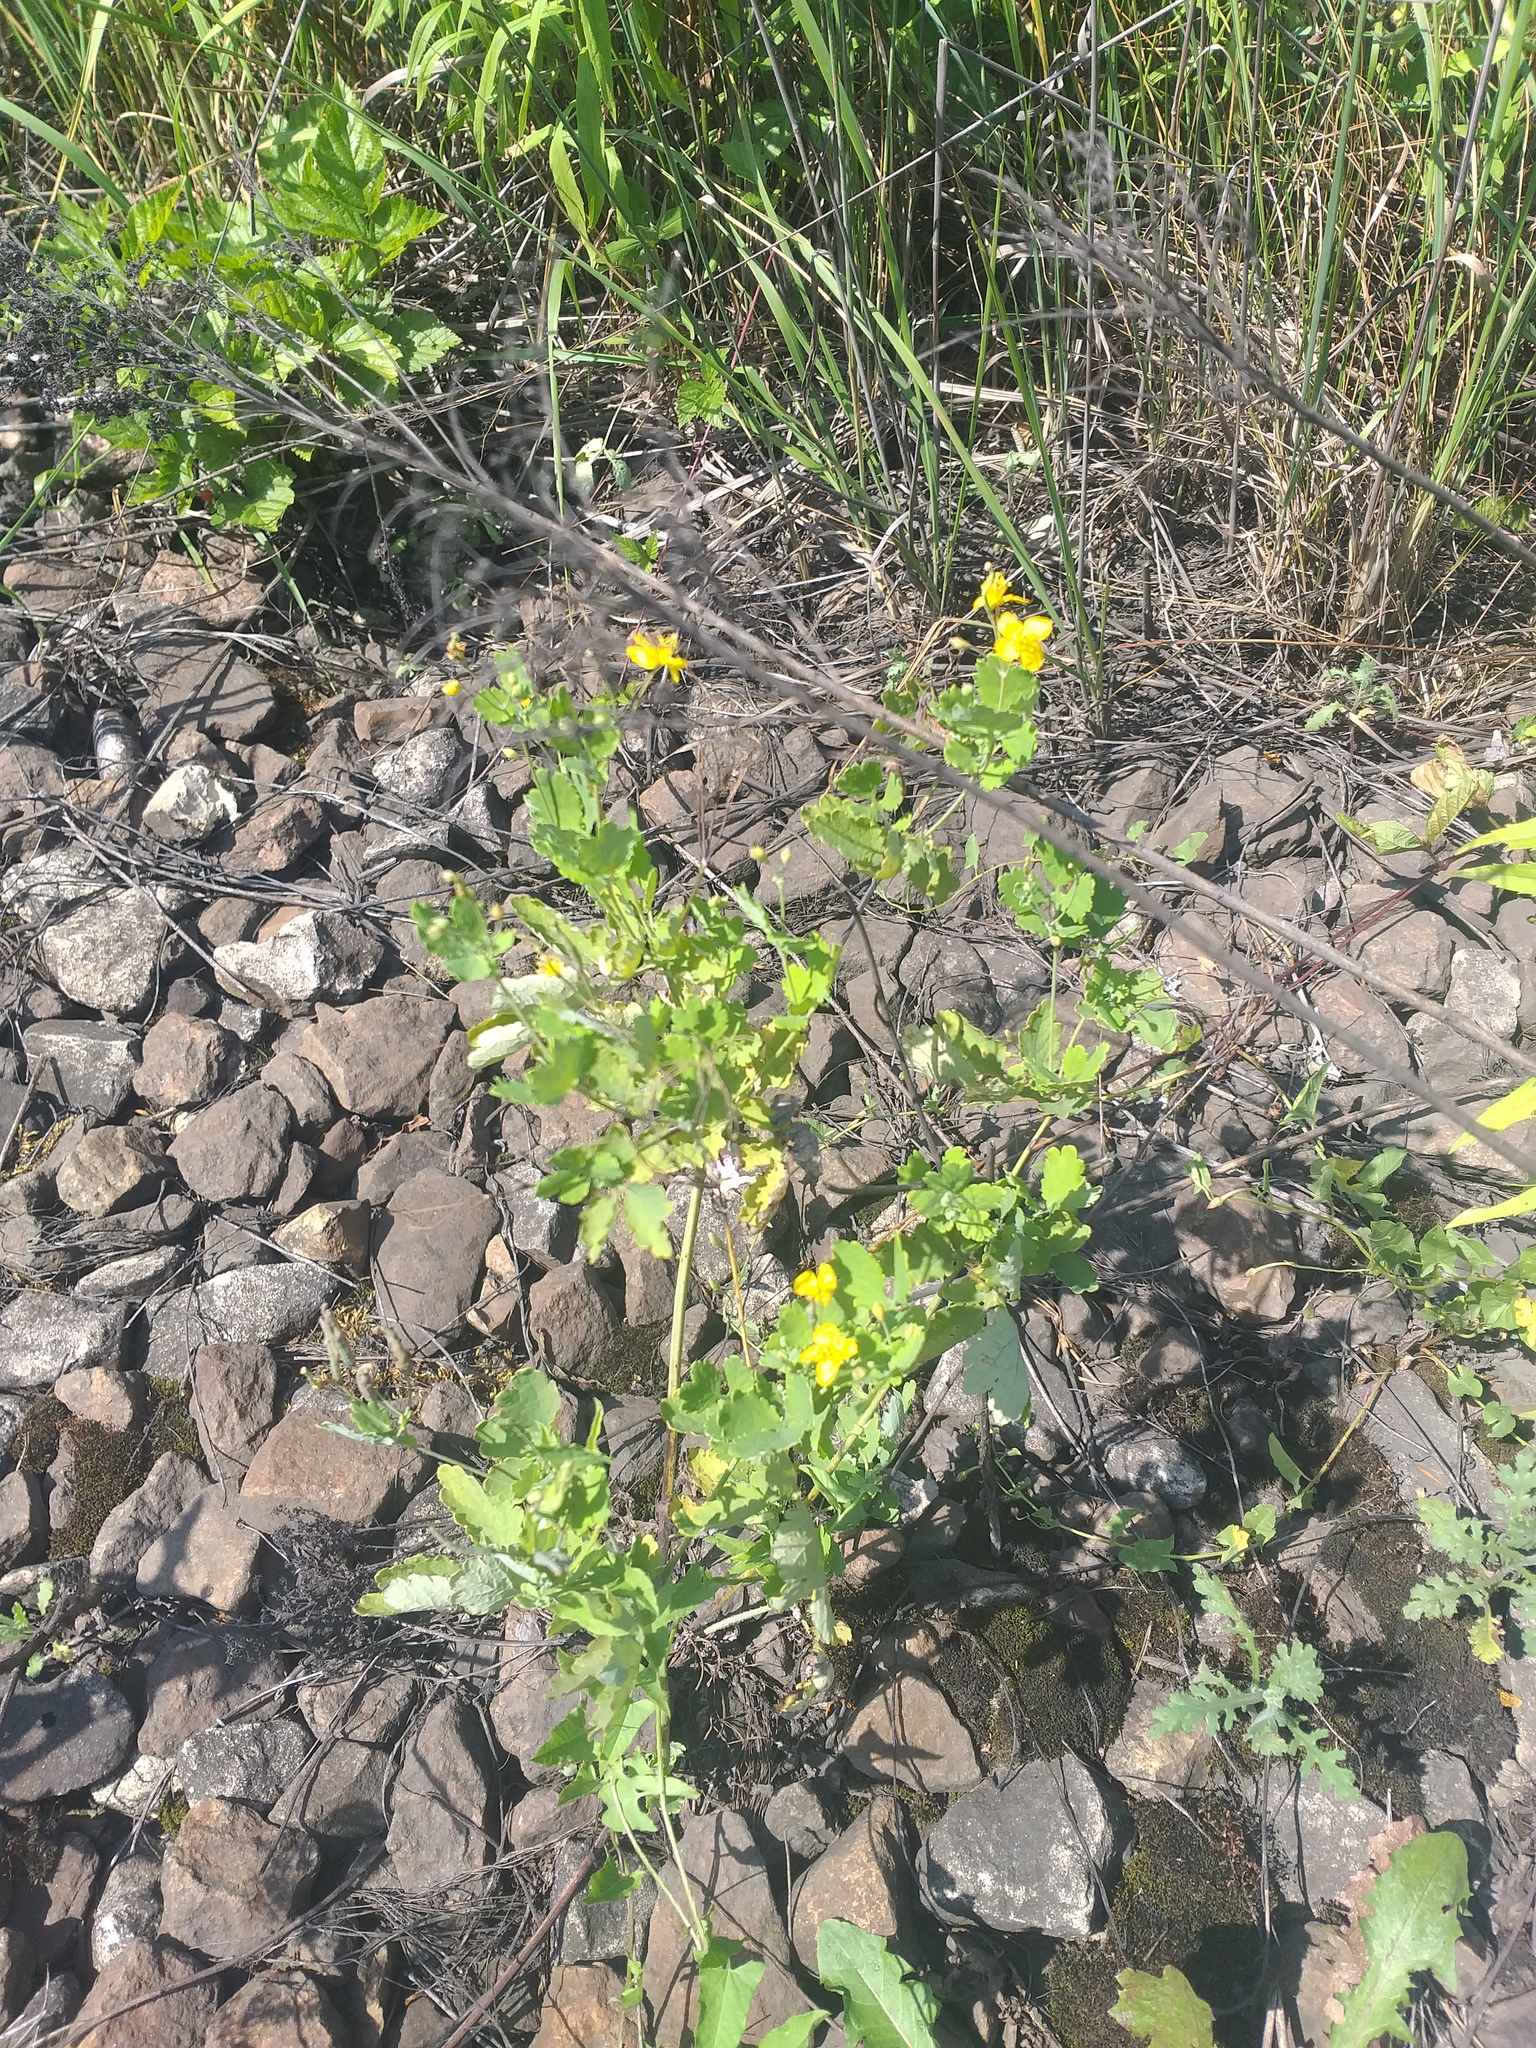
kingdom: Plantae
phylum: Tracheophyta
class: Magnoliopsida
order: Ranunculales
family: Papaveraceae
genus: Chelidonium
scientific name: Chelidonium majus
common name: Greater celandine
